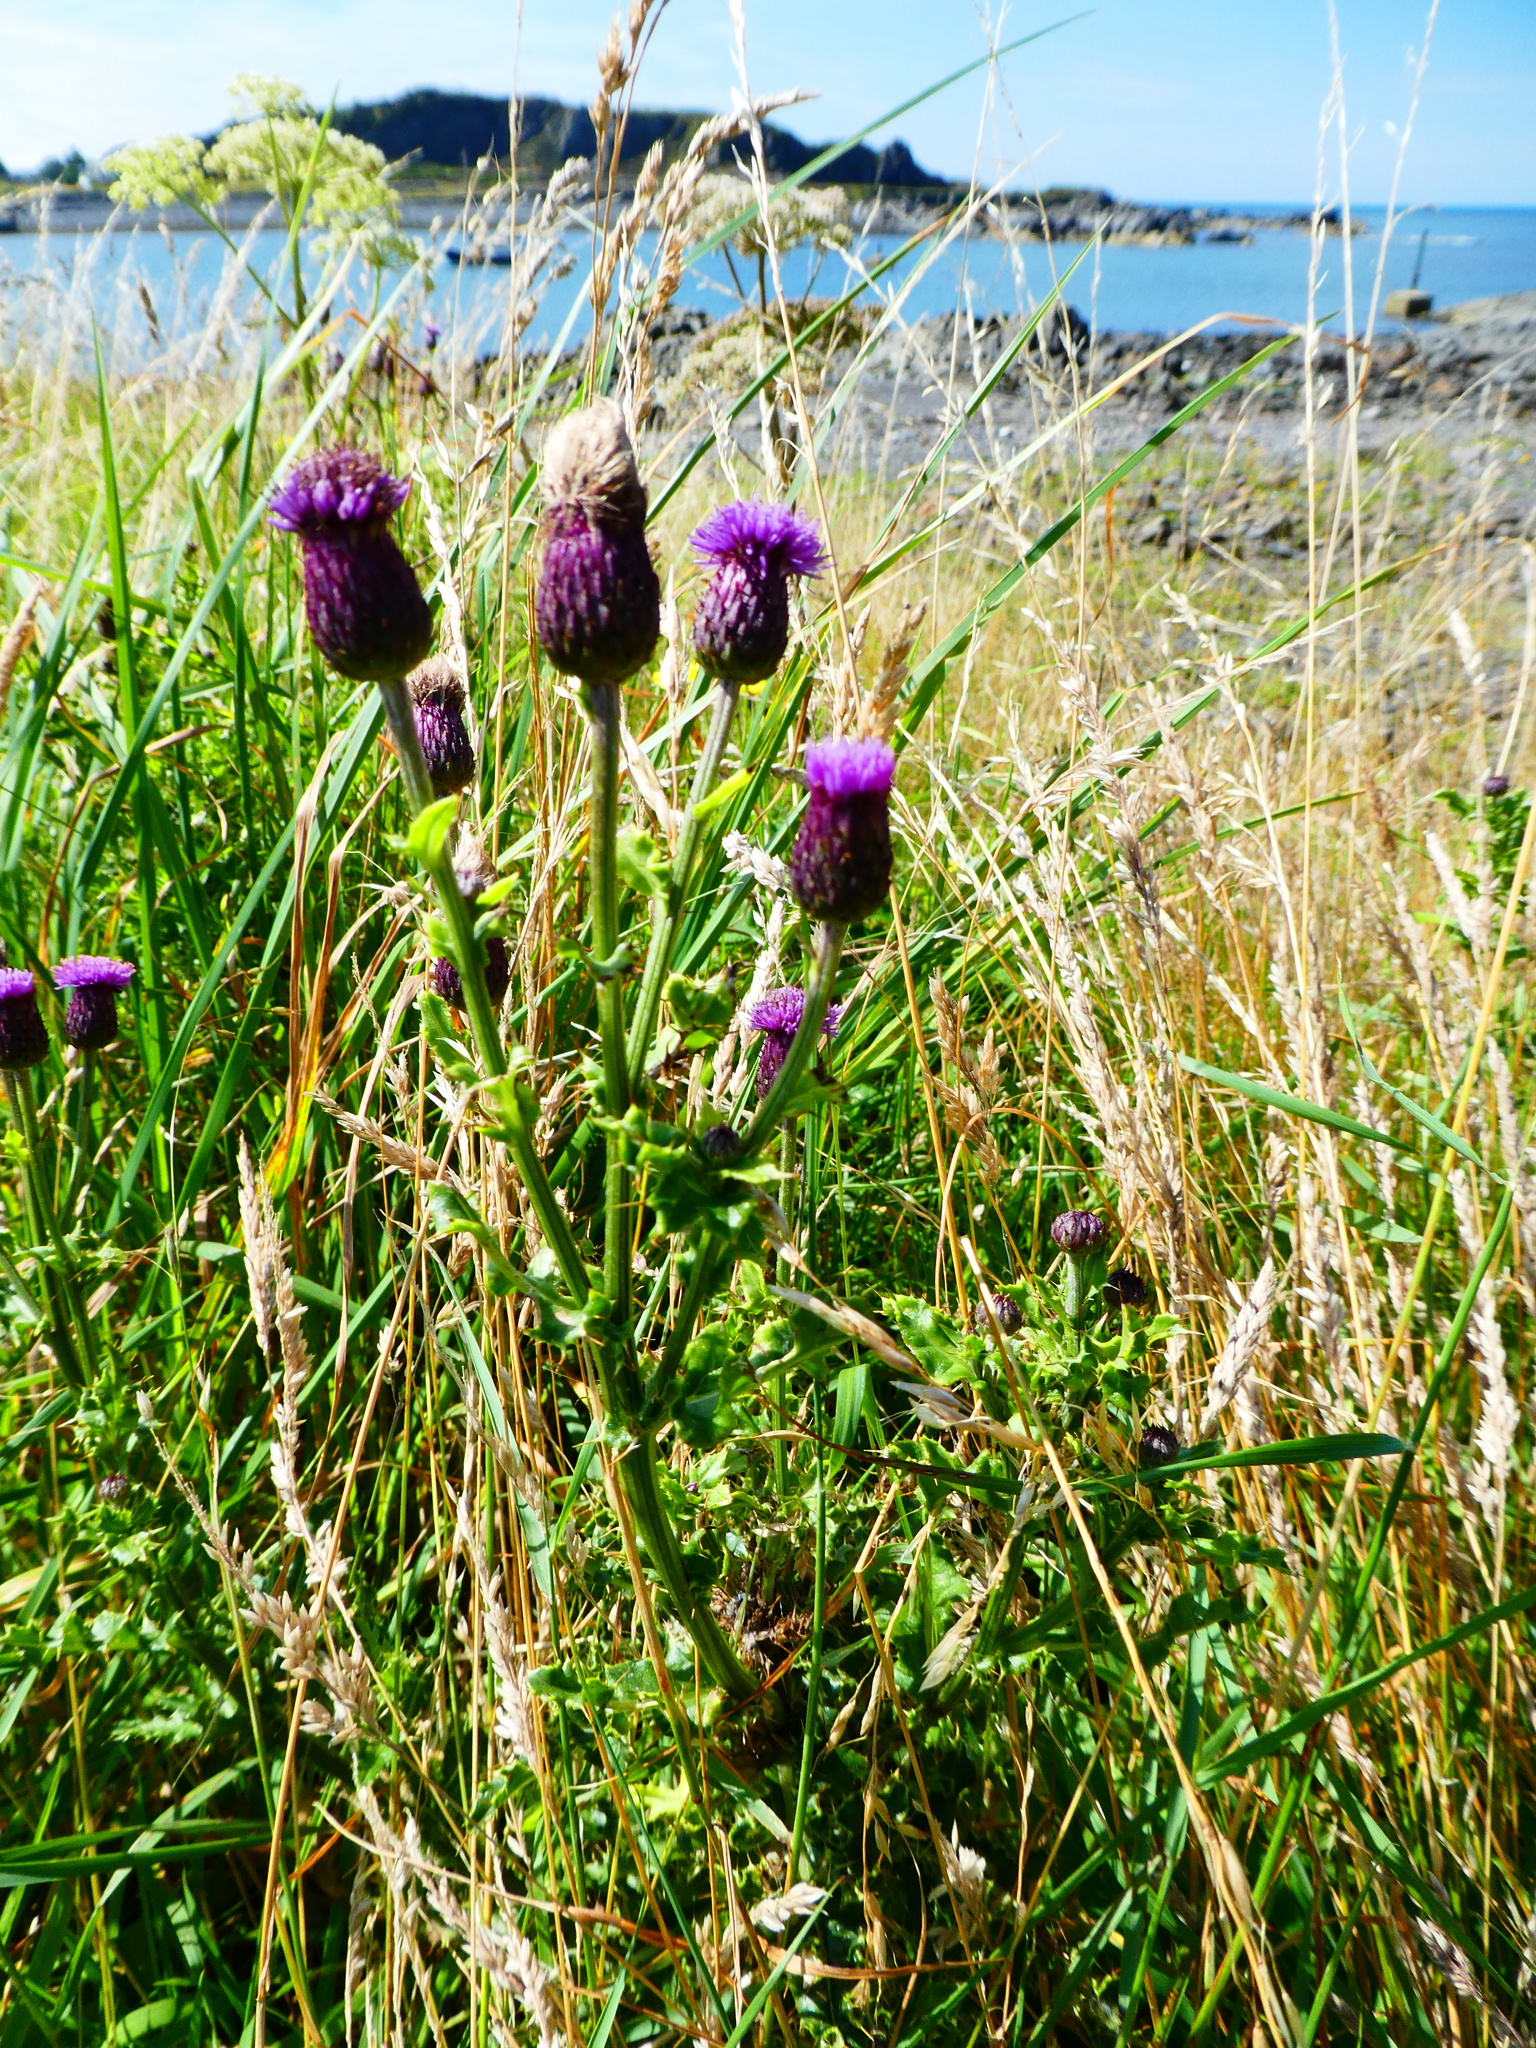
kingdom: Plantae
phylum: Tracheophyta
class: Magnoliopsida
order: Asterales
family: Asteraceae
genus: Cirsium
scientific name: Cirsium arvense
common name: Creeping thistle
